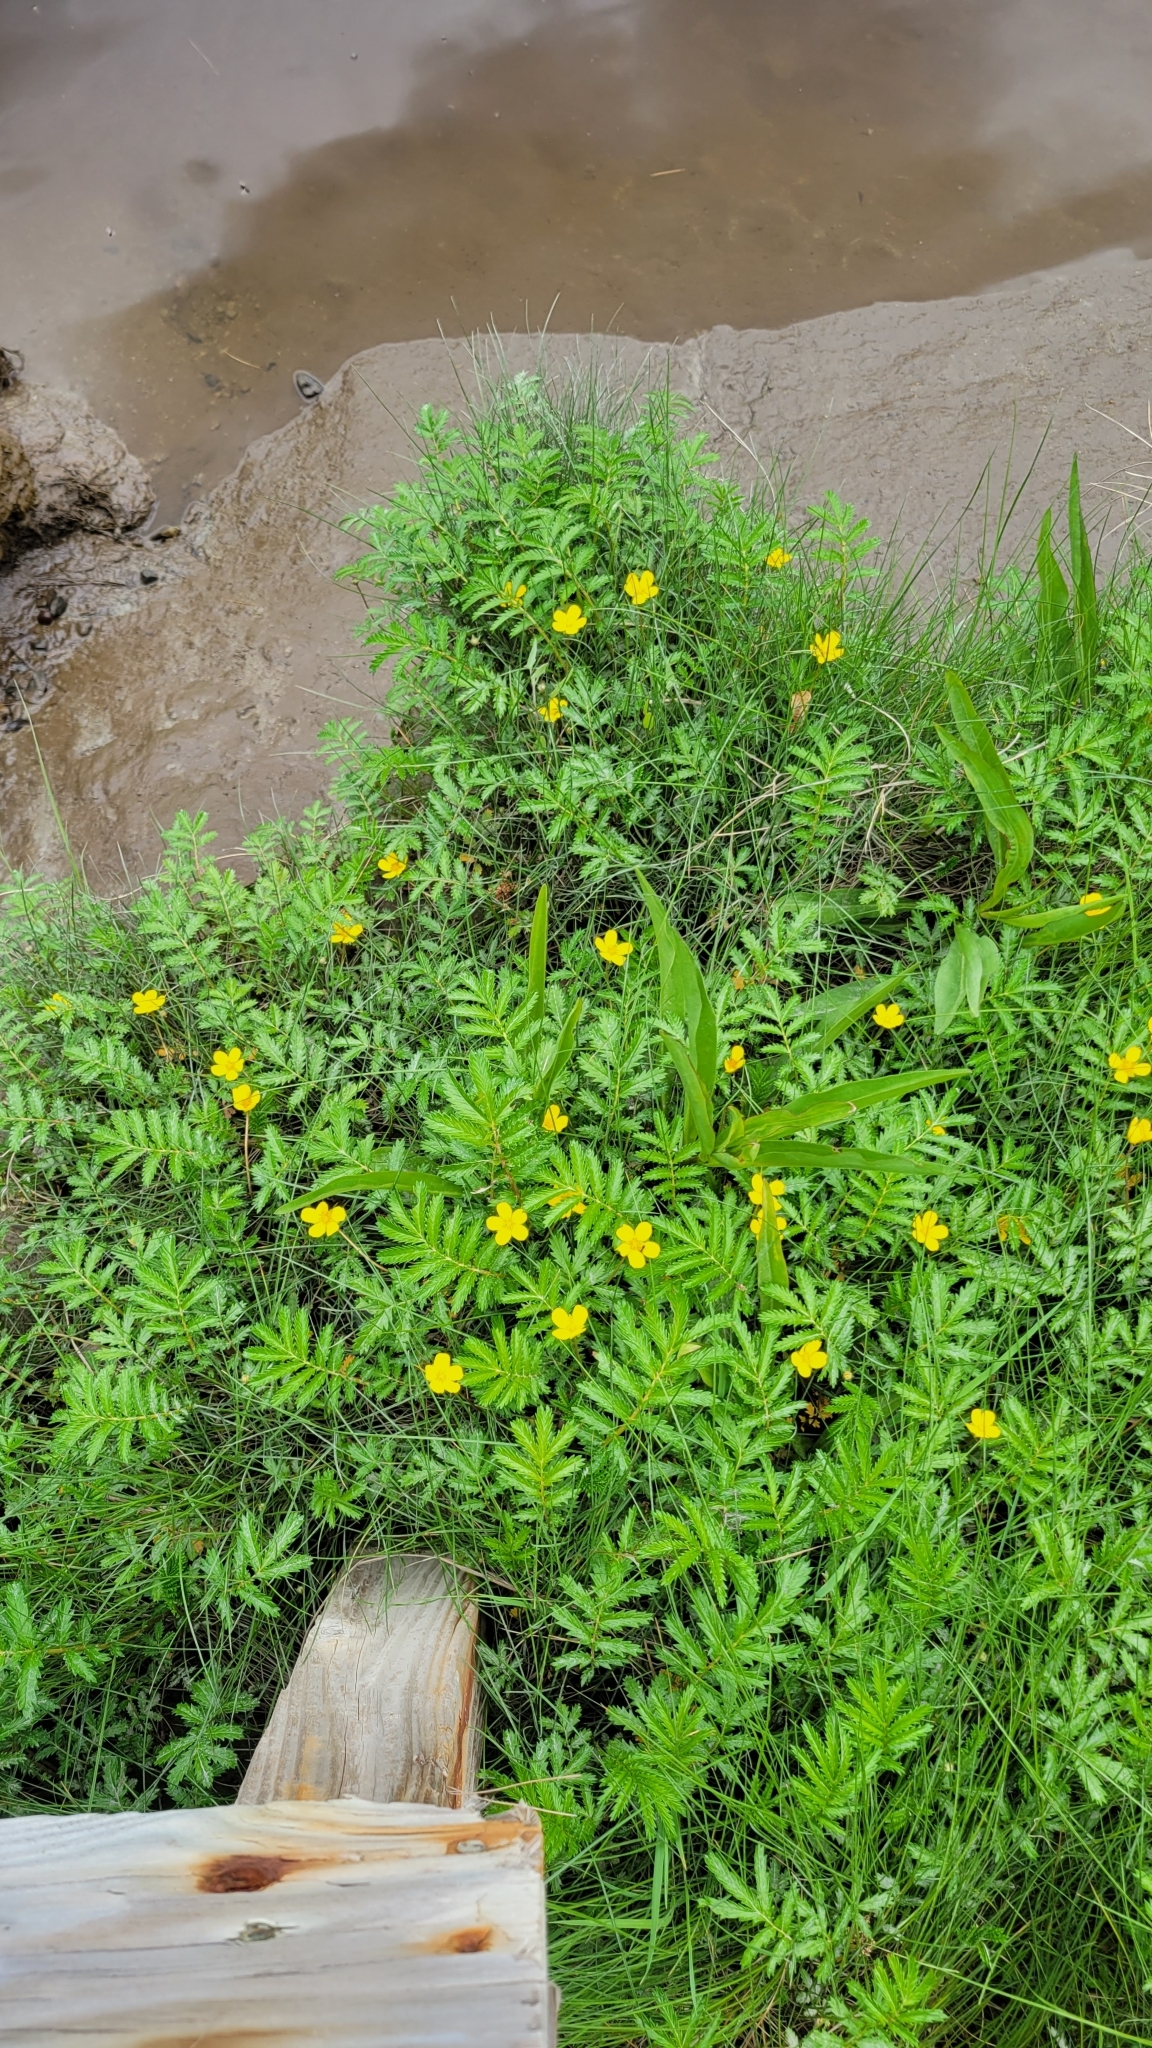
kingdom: Plantae
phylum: Tracheophyta
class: Magnoliopsida
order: Rosales
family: Rosaceae
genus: Argentina
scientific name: Argentina anserina
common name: Common silverweed
